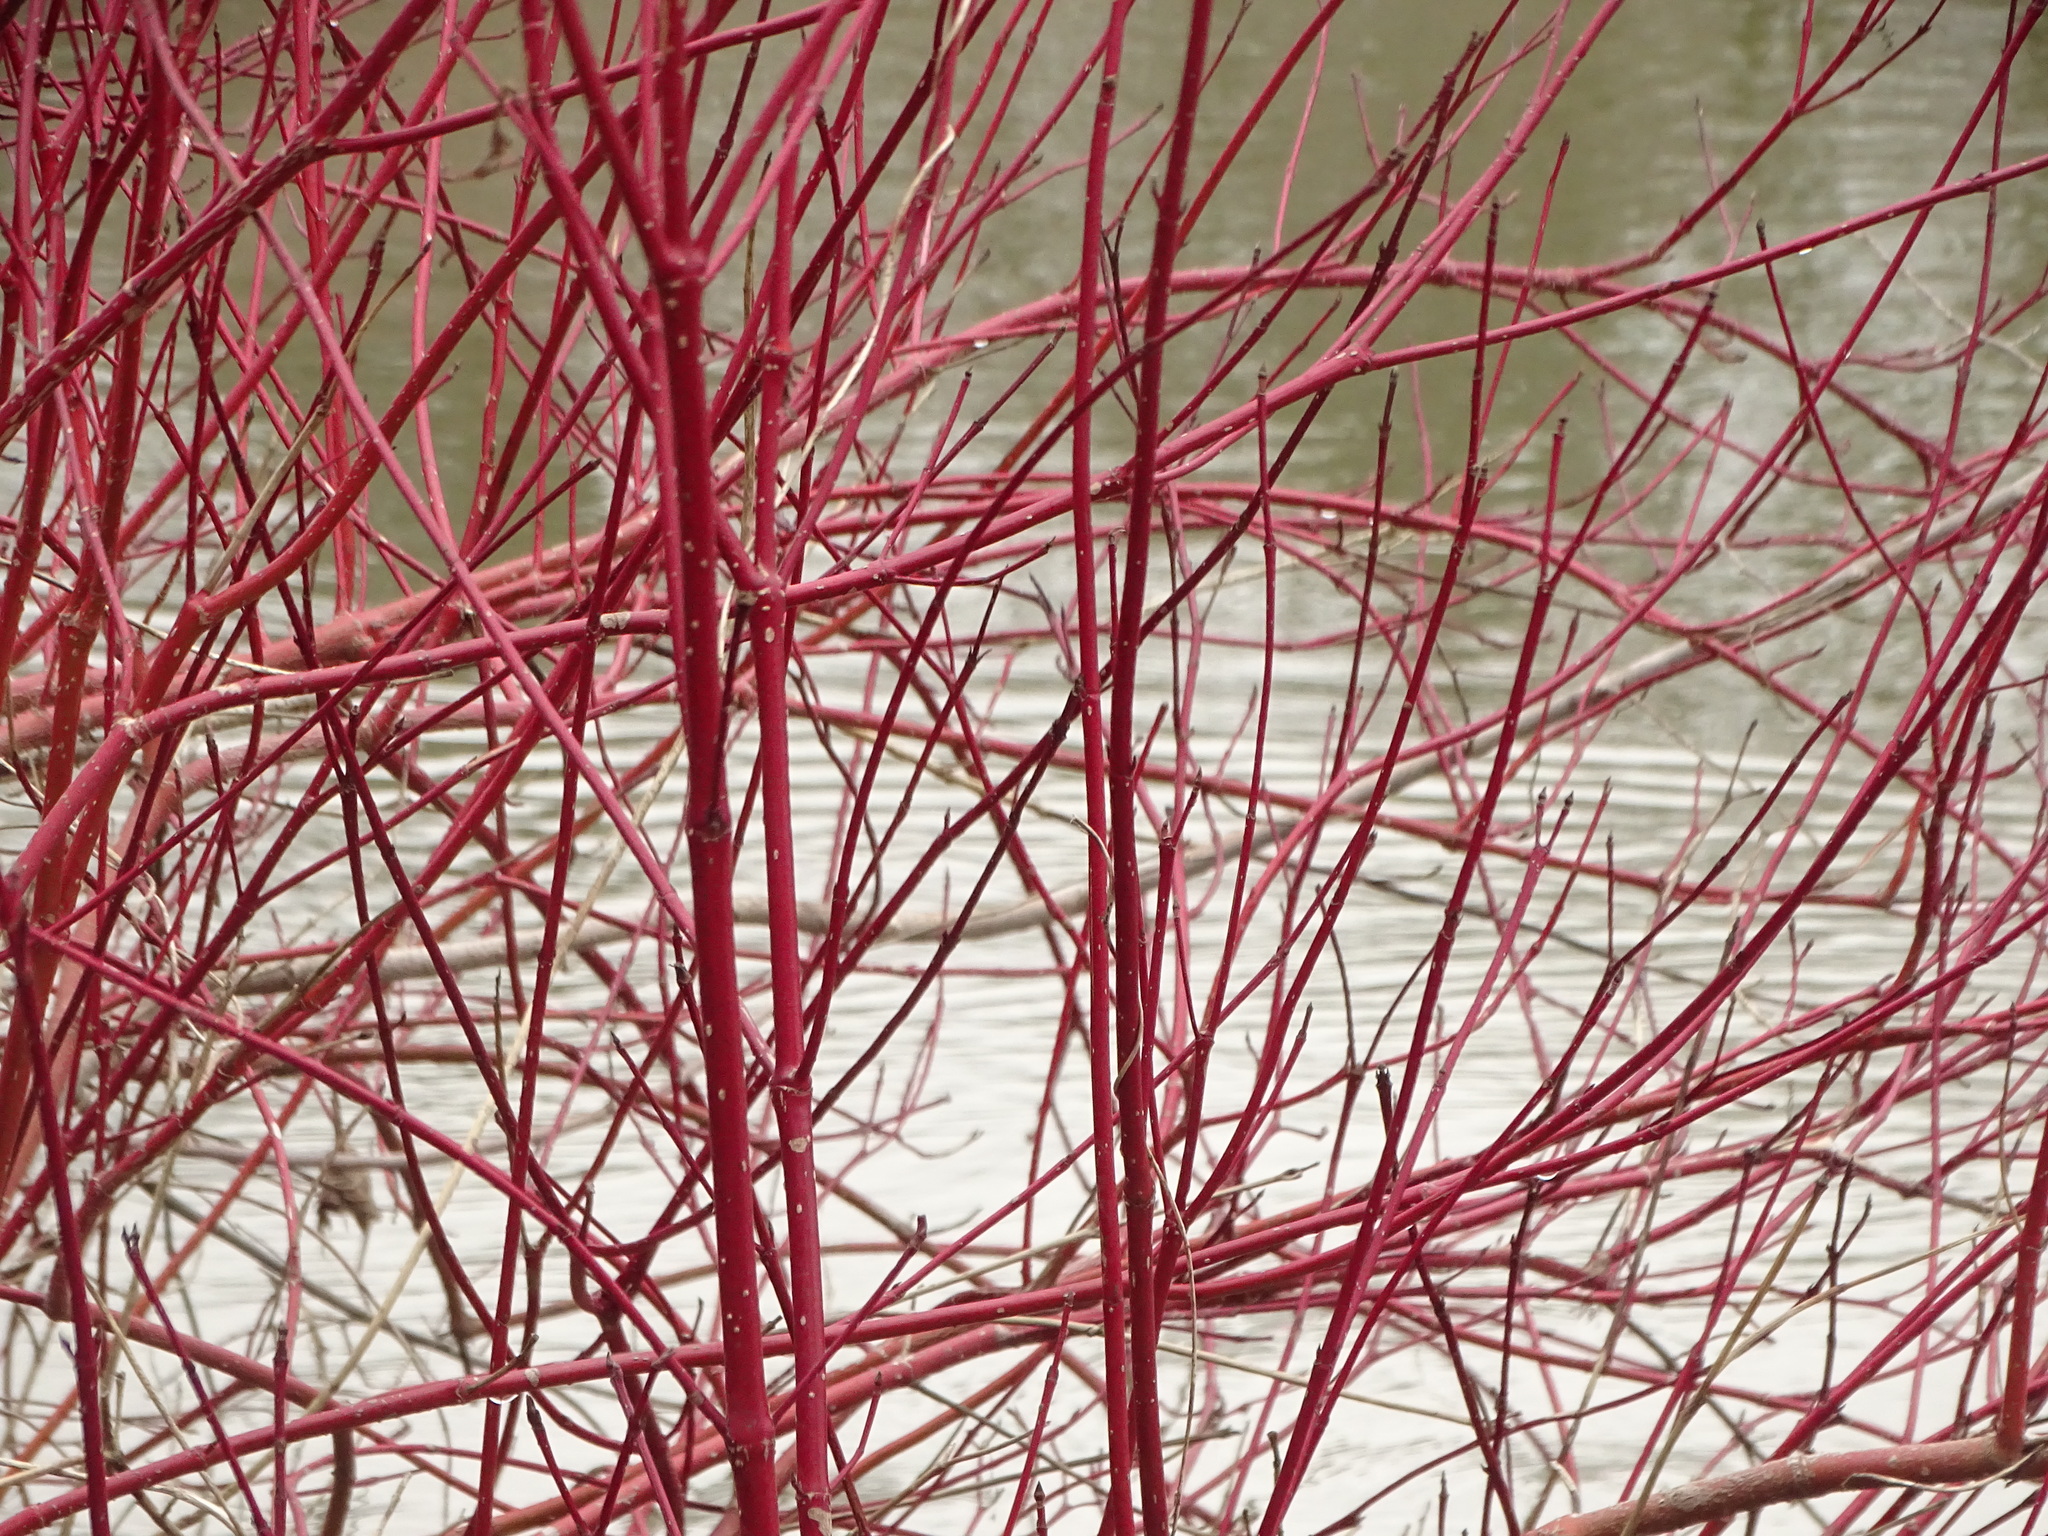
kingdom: Plantae
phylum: Tracheophyta
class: Magnoliopsida
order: Cornales
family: Cornaceae
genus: Cornus
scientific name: Cornus sericea
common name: Red-osier dogwood
